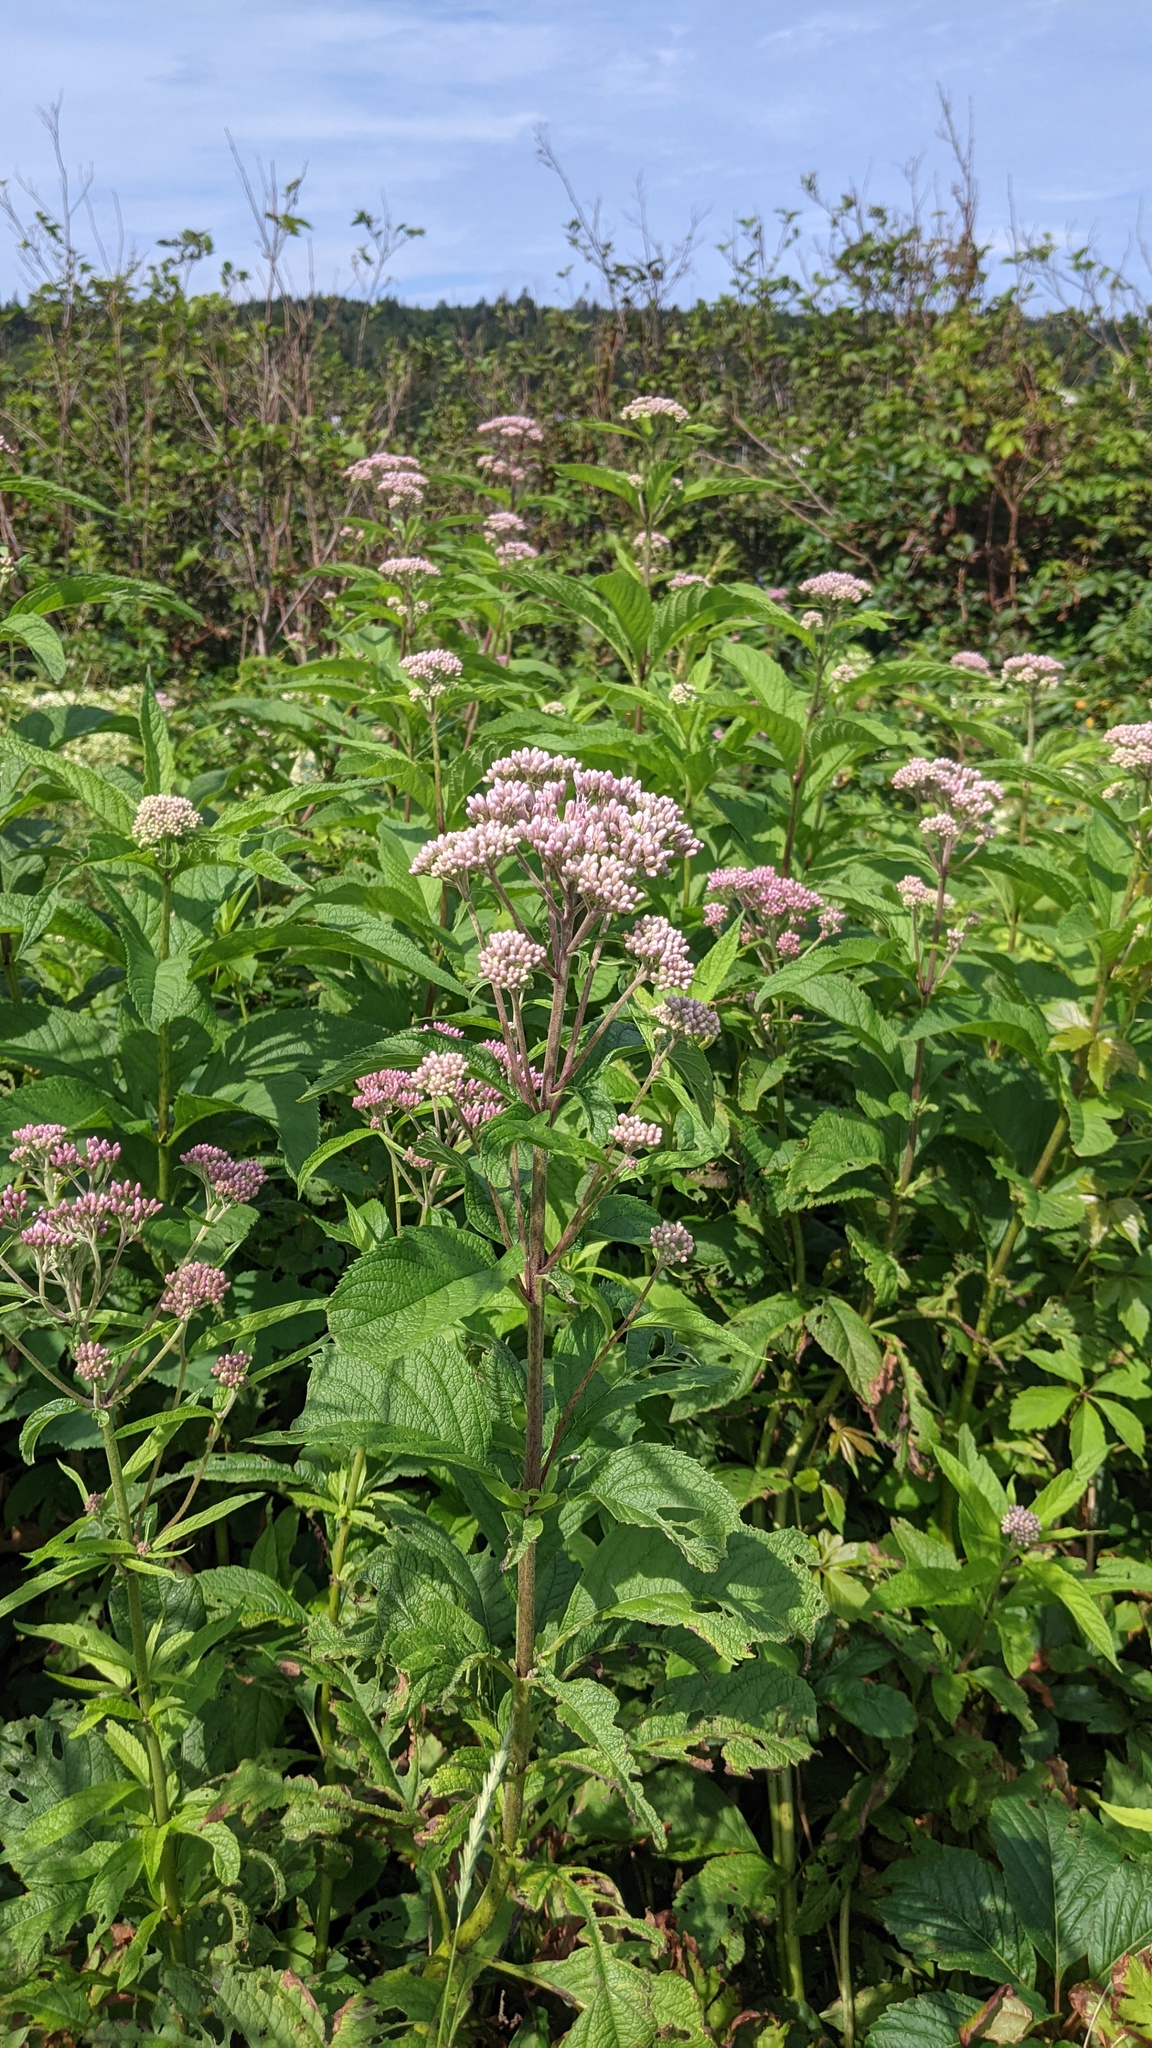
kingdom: Plantae
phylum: Tracheophyta
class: Magnoliopsida
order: Asterales
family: Asteraceae
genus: Eutrochium
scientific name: Eutrochium maculatum
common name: Spotted joe pye weed
